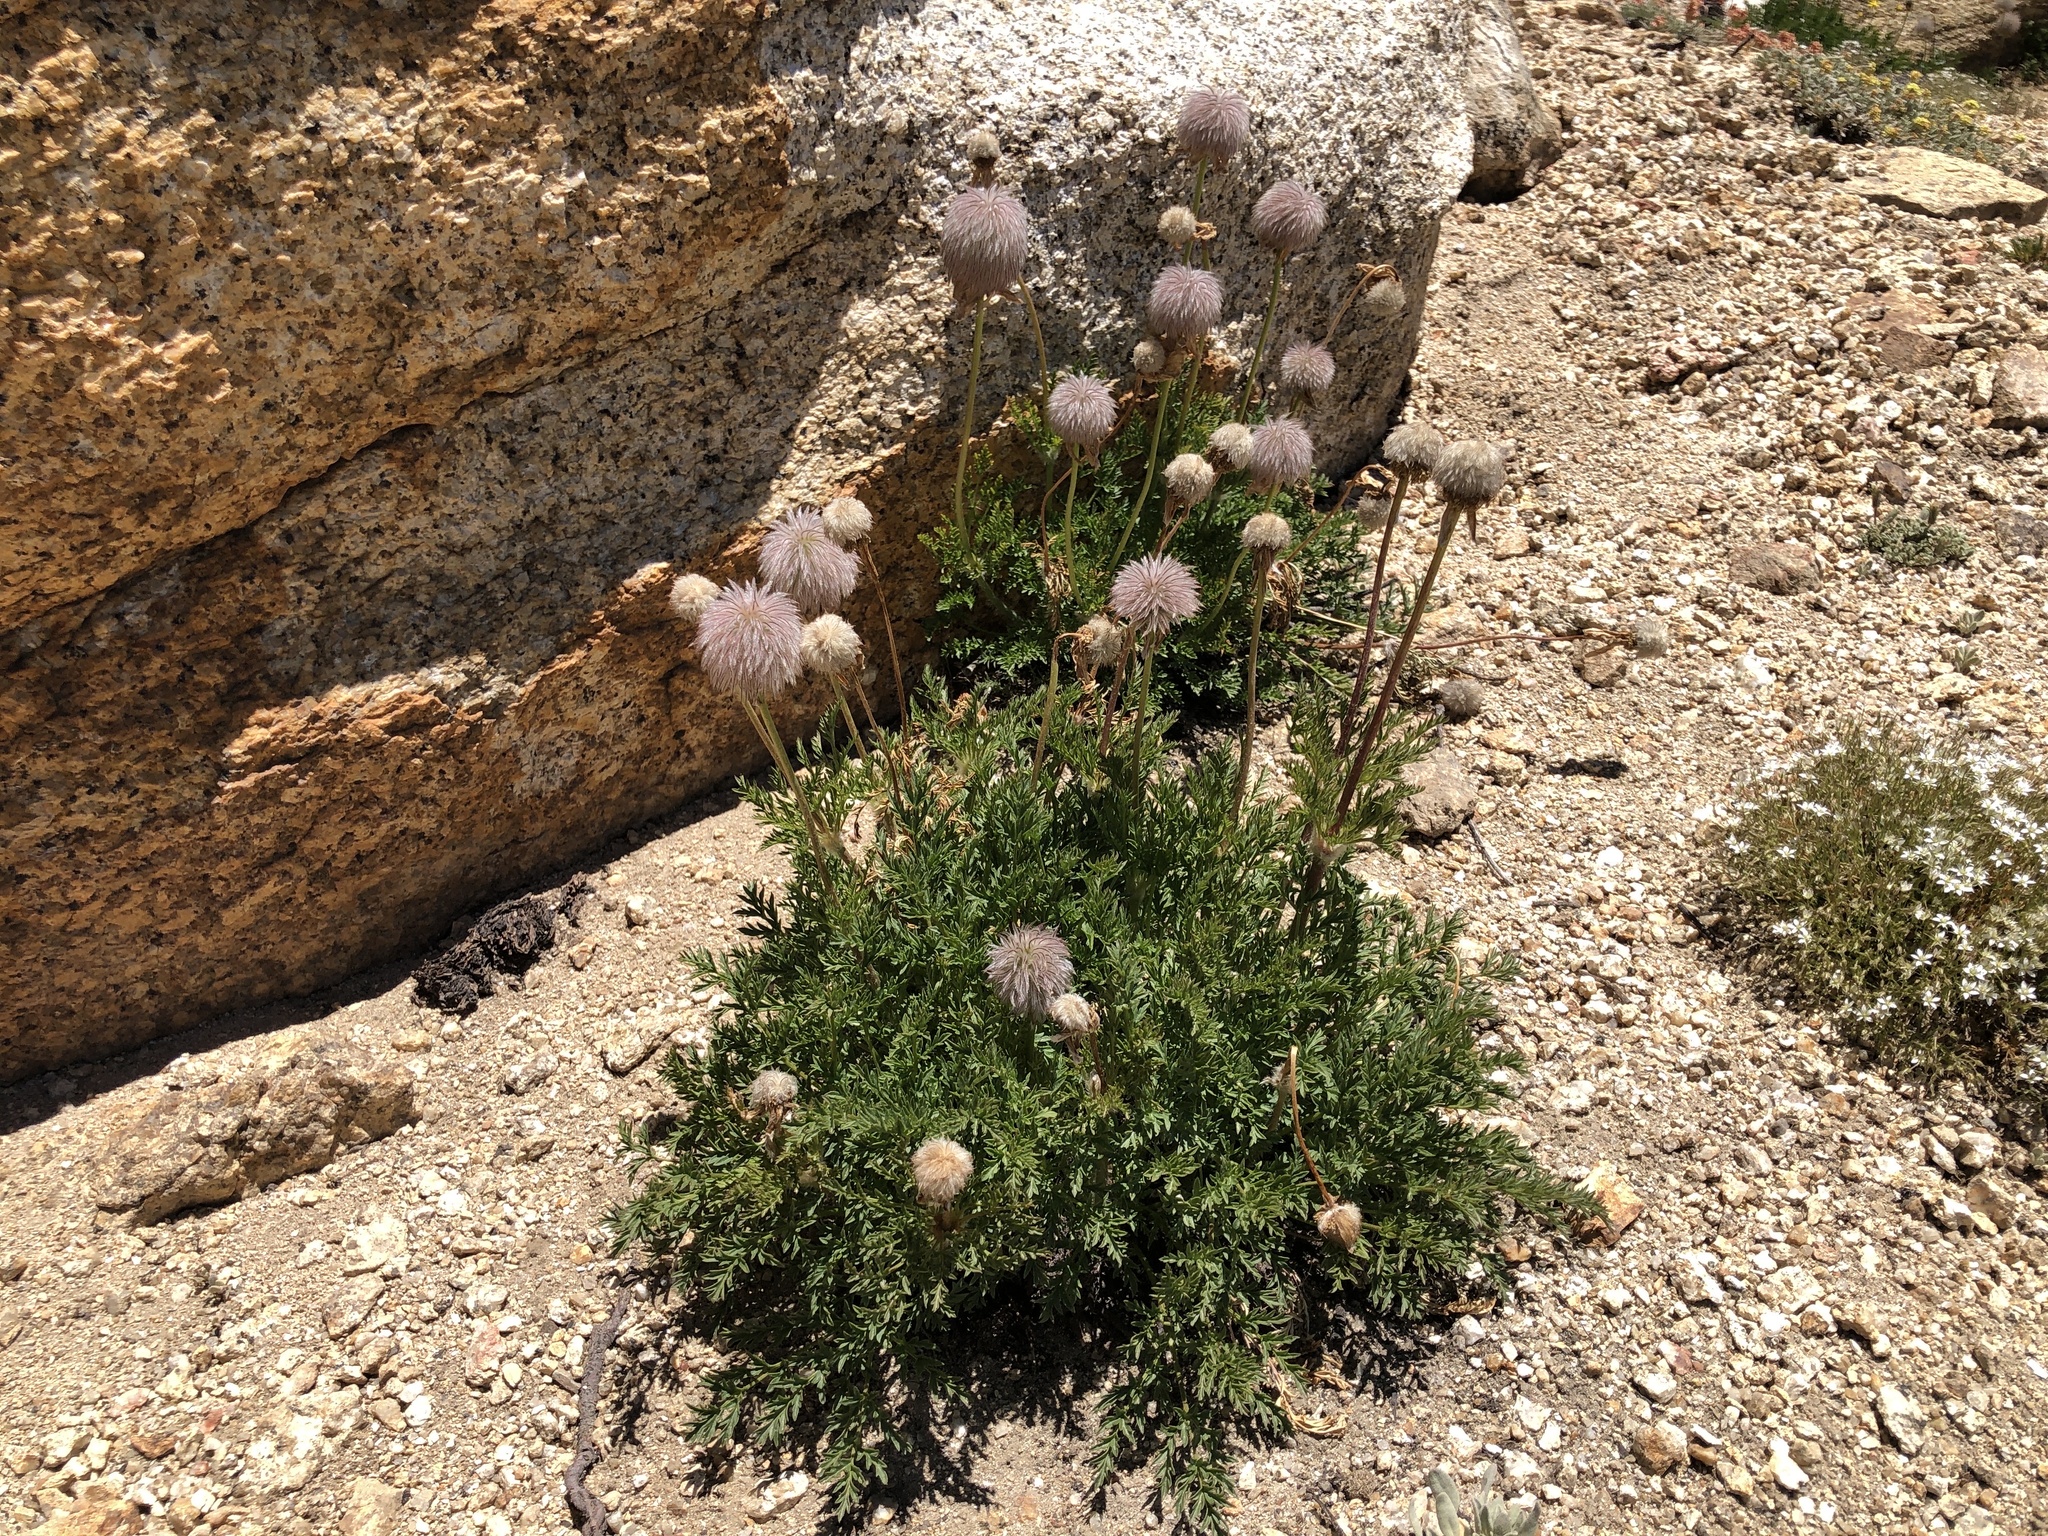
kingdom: Plantae
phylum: Tracheophyta
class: Magnoliopsida
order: Ranunculales
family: Ranunculaceae
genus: Pulsatilla
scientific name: Pulsatilla occidentalis
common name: Mountain pasqueflower
